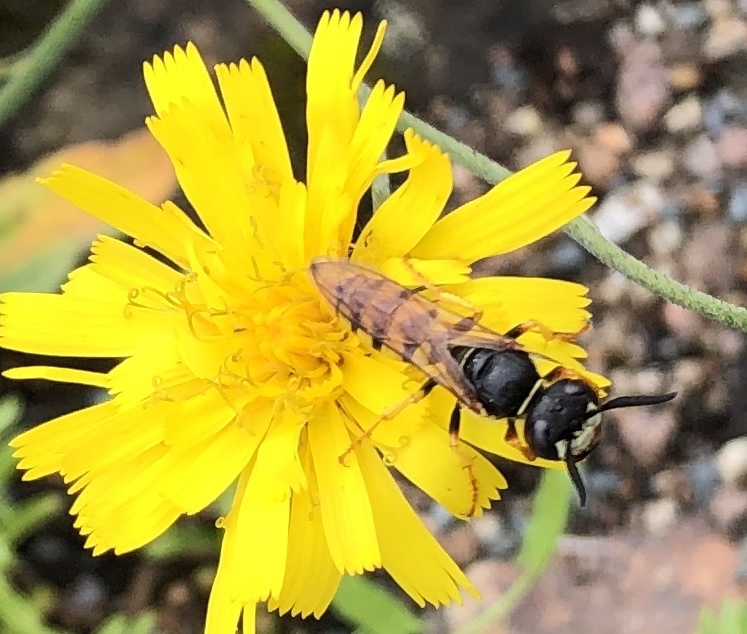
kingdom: Animalia
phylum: Arthropoda
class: Insecta
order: Hymenoptera
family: Crabronidae
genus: Philanthus
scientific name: Philanthus triangulum
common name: Bee wolf
